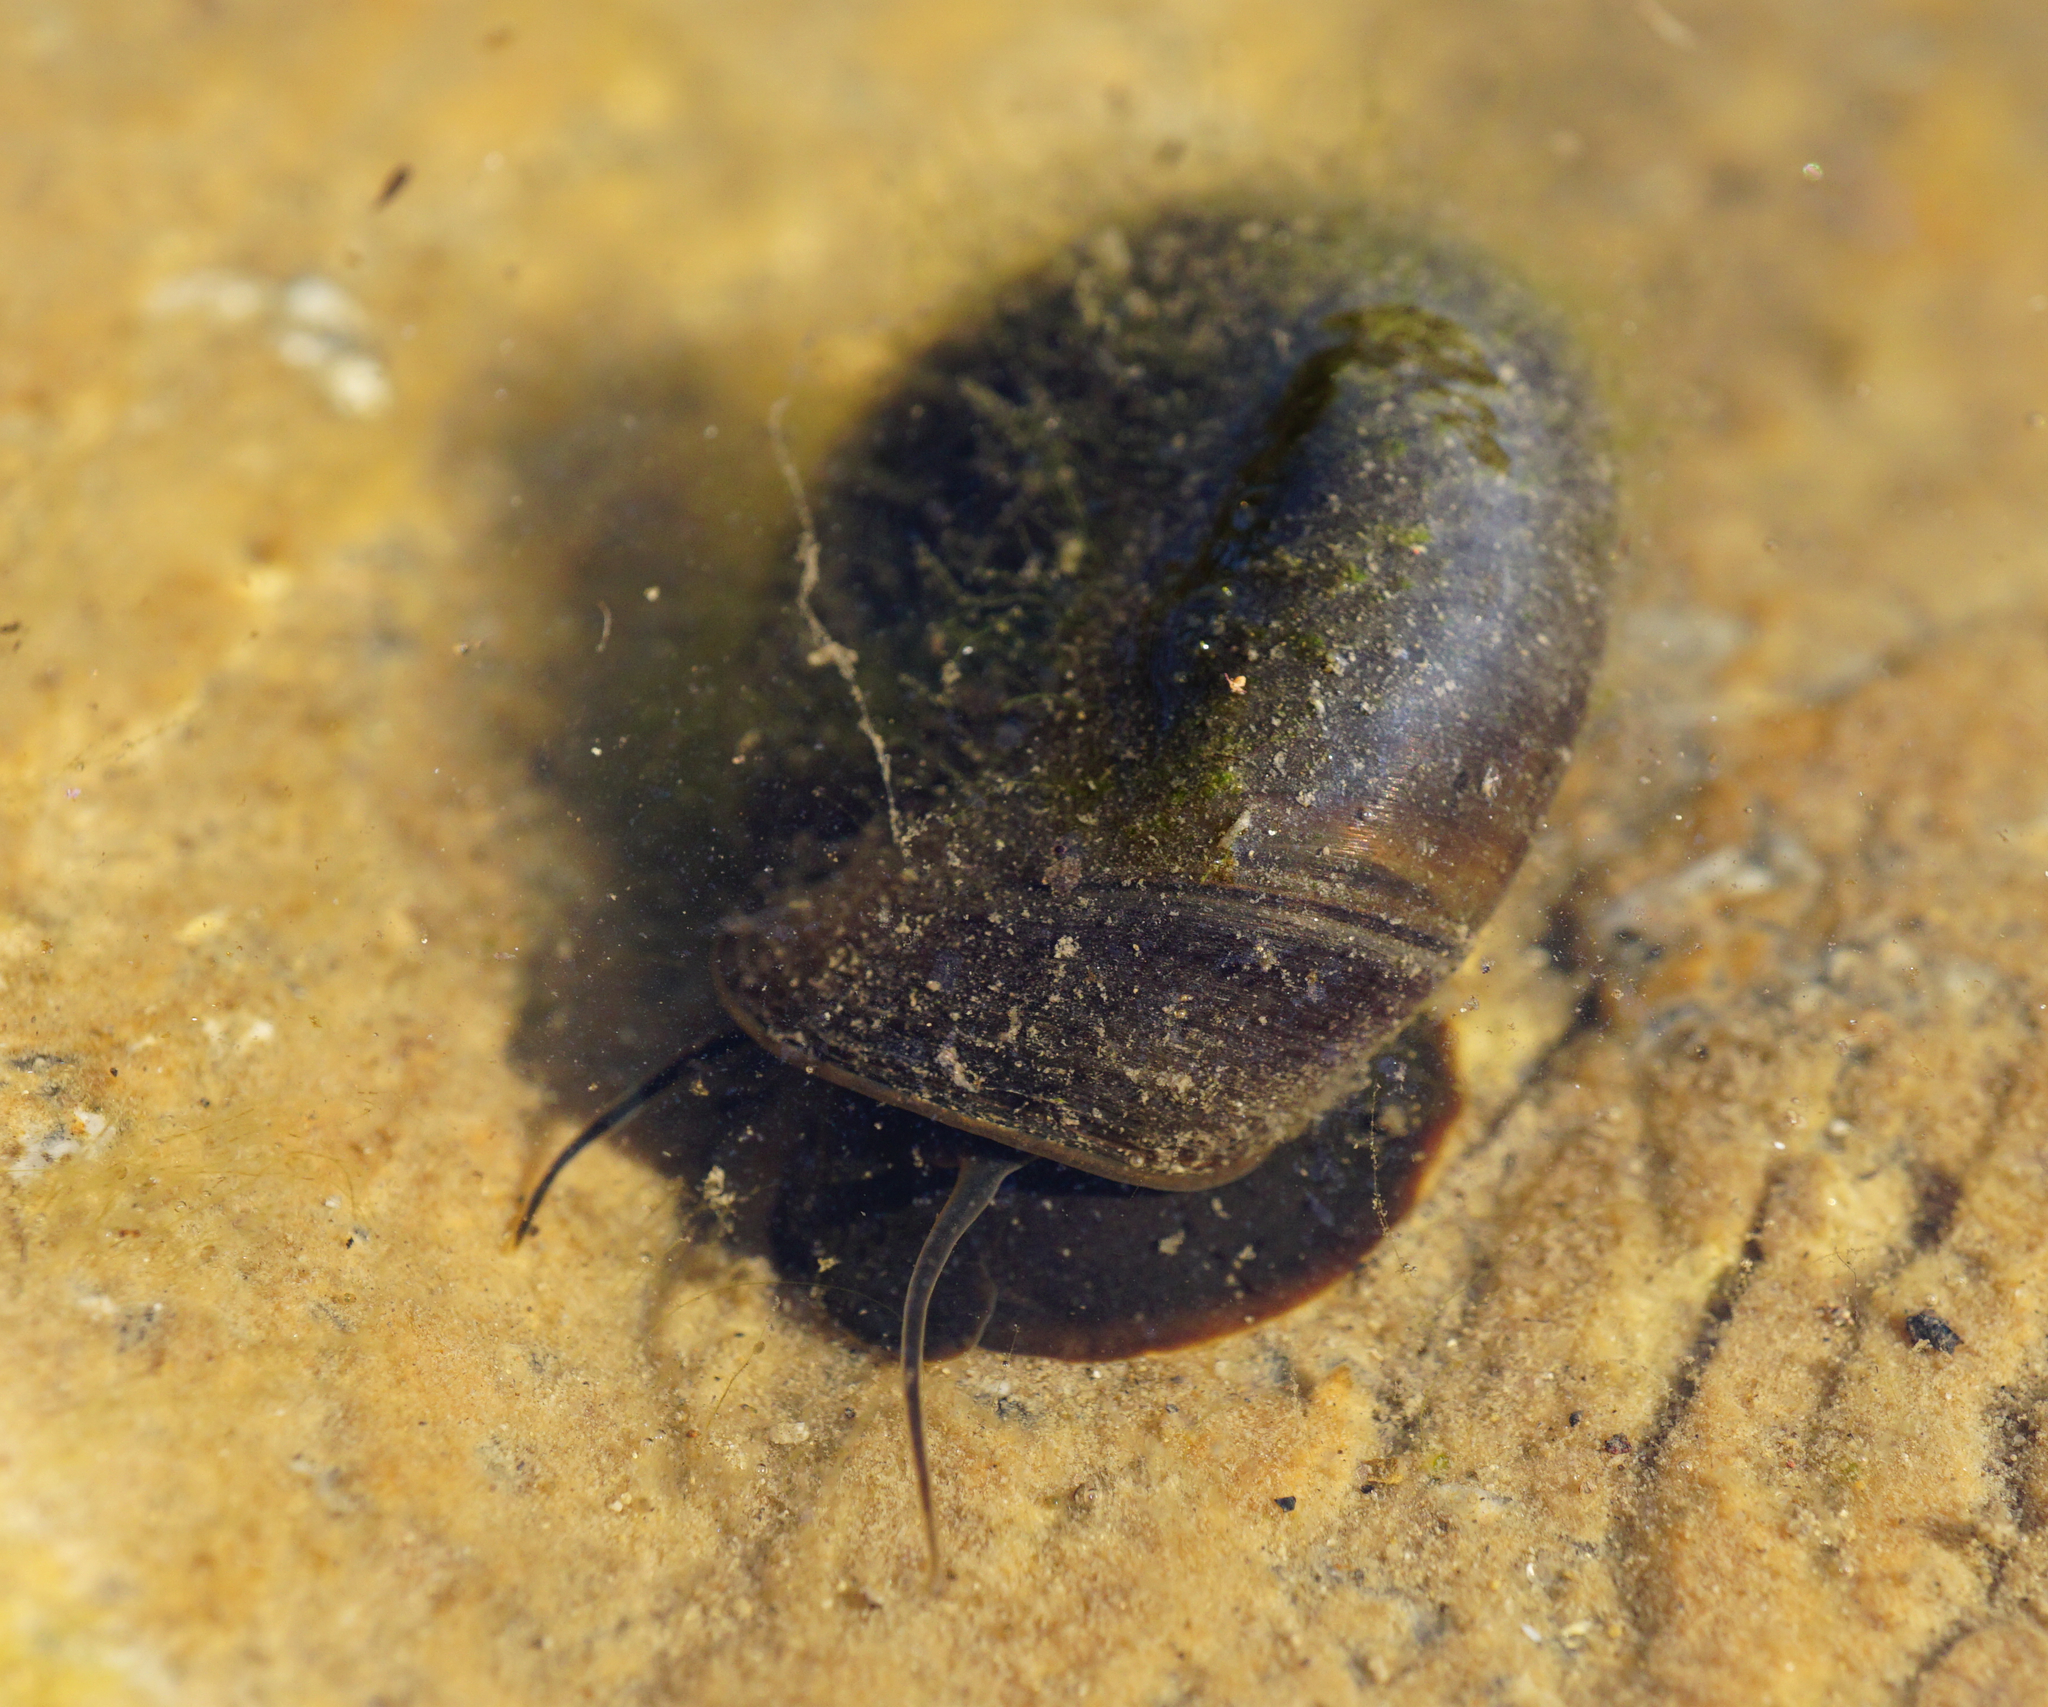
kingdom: Animalia
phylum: Mollusca
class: Gastropoda
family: Planorbidae
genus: Planorbarius
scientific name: Planorbarius corneus
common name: Great ramshorn
